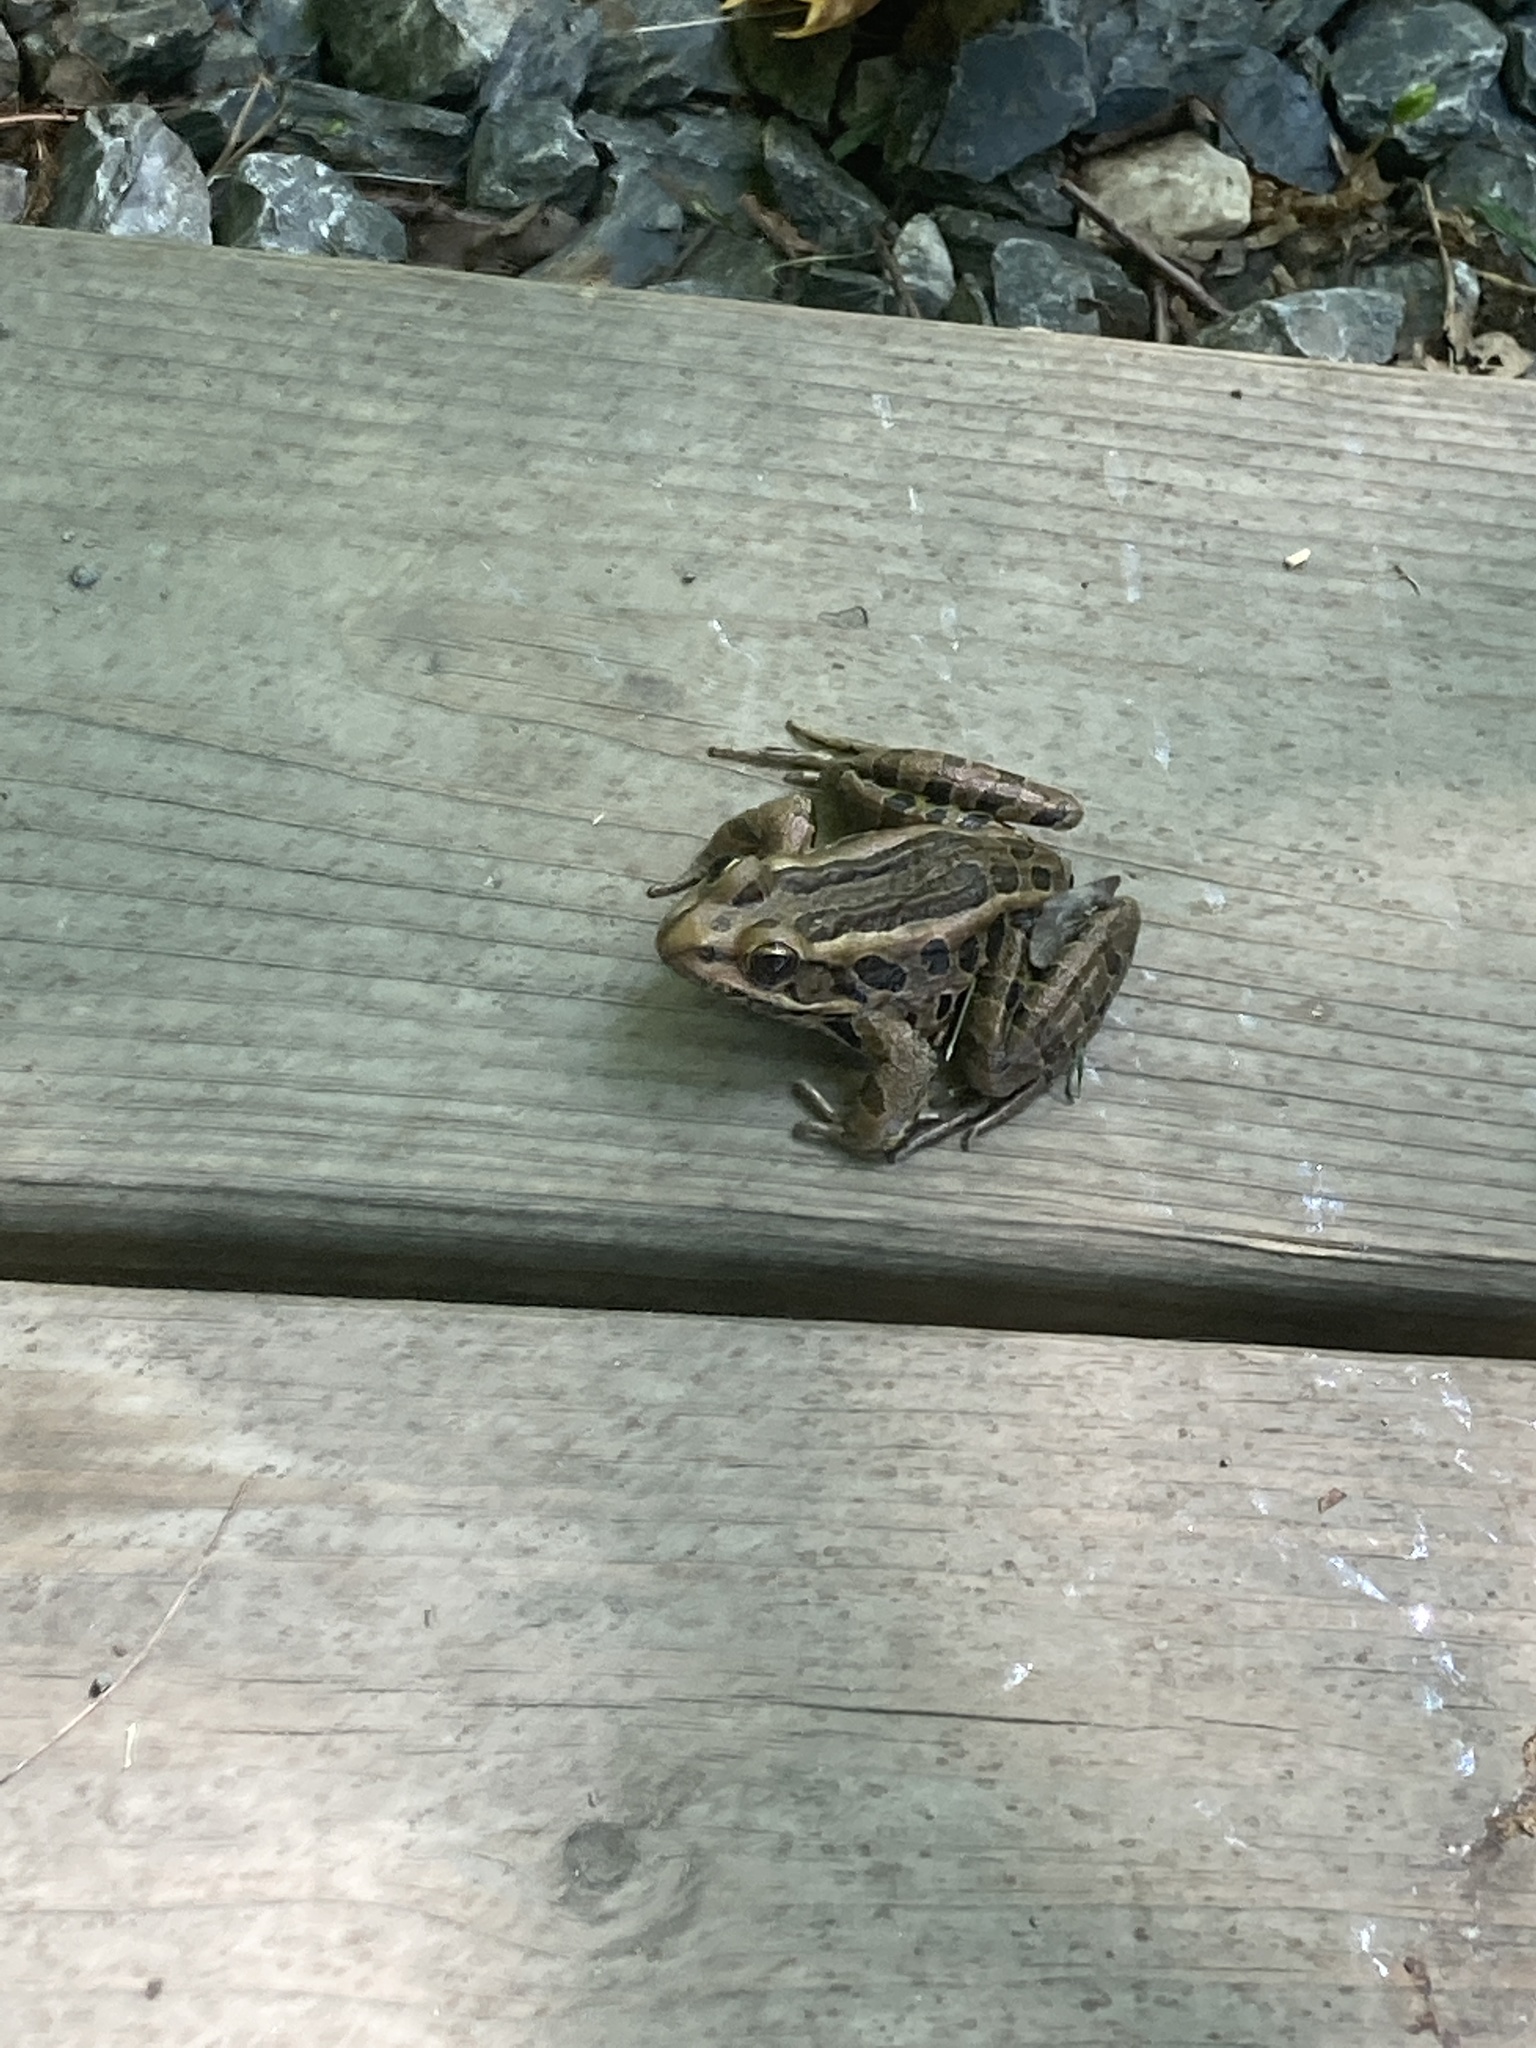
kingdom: Animalia
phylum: Chordata
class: Amphibia
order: Anura
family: Ranidae
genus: Lithobates
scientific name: Lithobates palustris
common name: Pickerel frog
